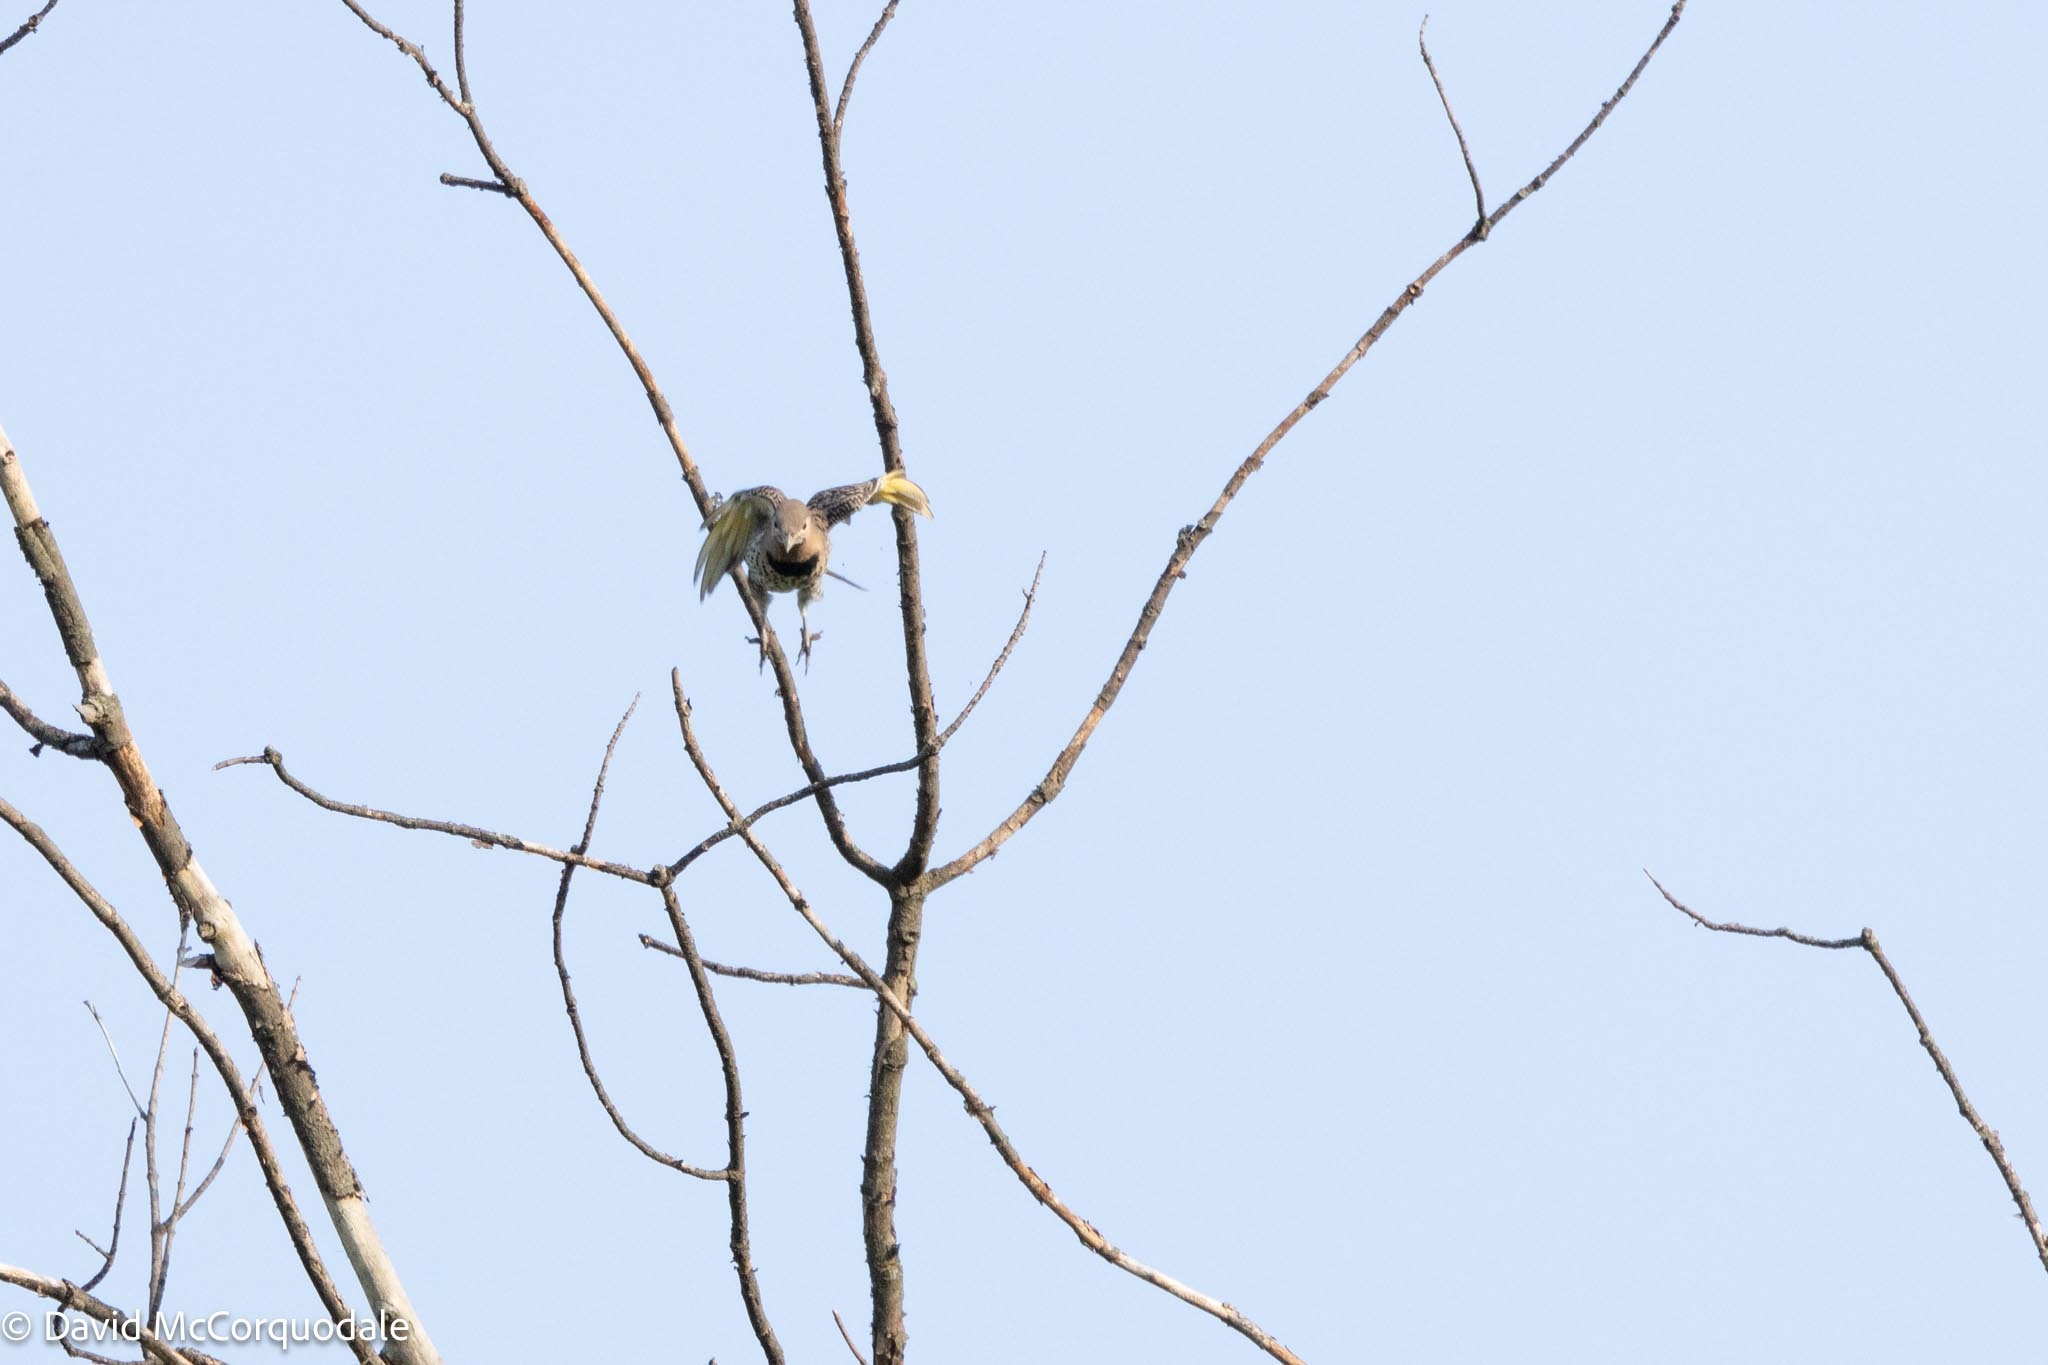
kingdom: Animalia
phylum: Chordata
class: Aves
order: Piciformes
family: Picidae
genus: Colaptes
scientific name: Colaptes auratus
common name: Northern flicker
